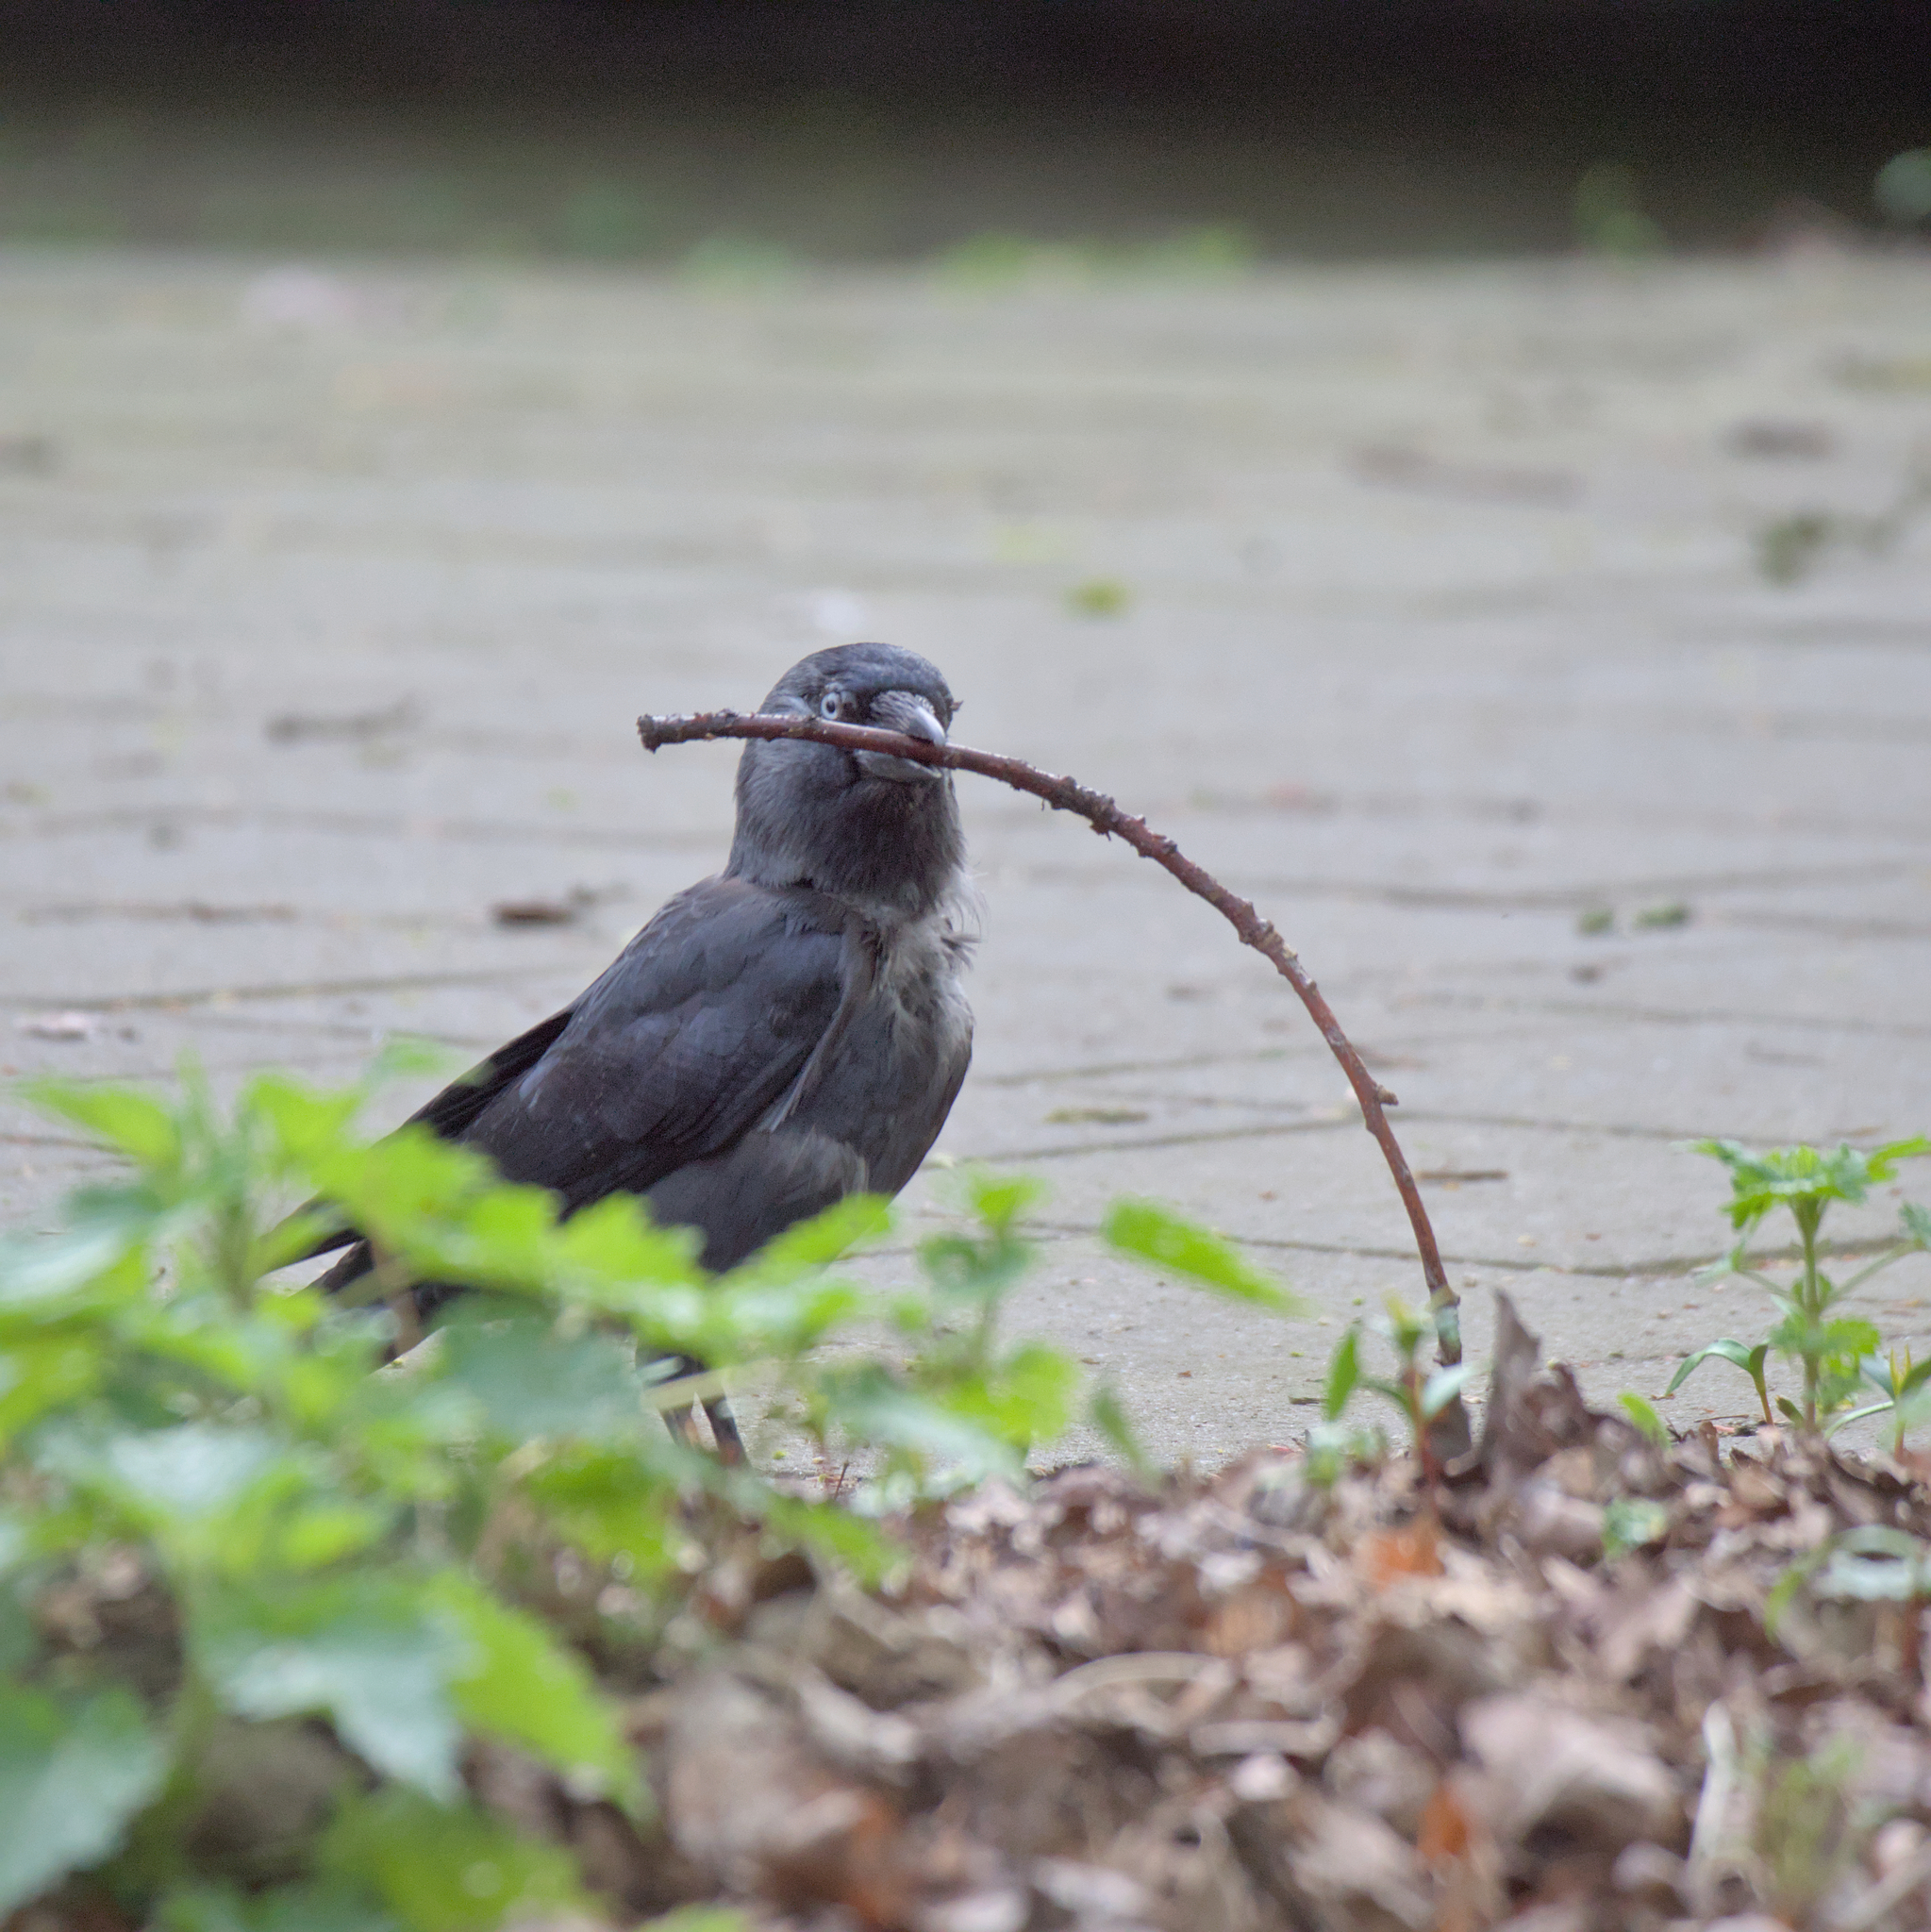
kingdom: Animalia
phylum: Chordata
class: Aves
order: Passeriformes
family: Corvidae
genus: Coloeus
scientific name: Coloeus monedula
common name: Western jackdaw
